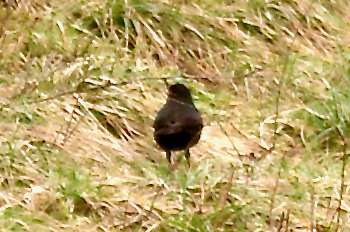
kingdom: Animalia
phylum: Chordata
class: Aves
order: Passeriformes
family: Turdidae
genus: Turdus
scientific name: Turdus merula
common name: Common blackbird
